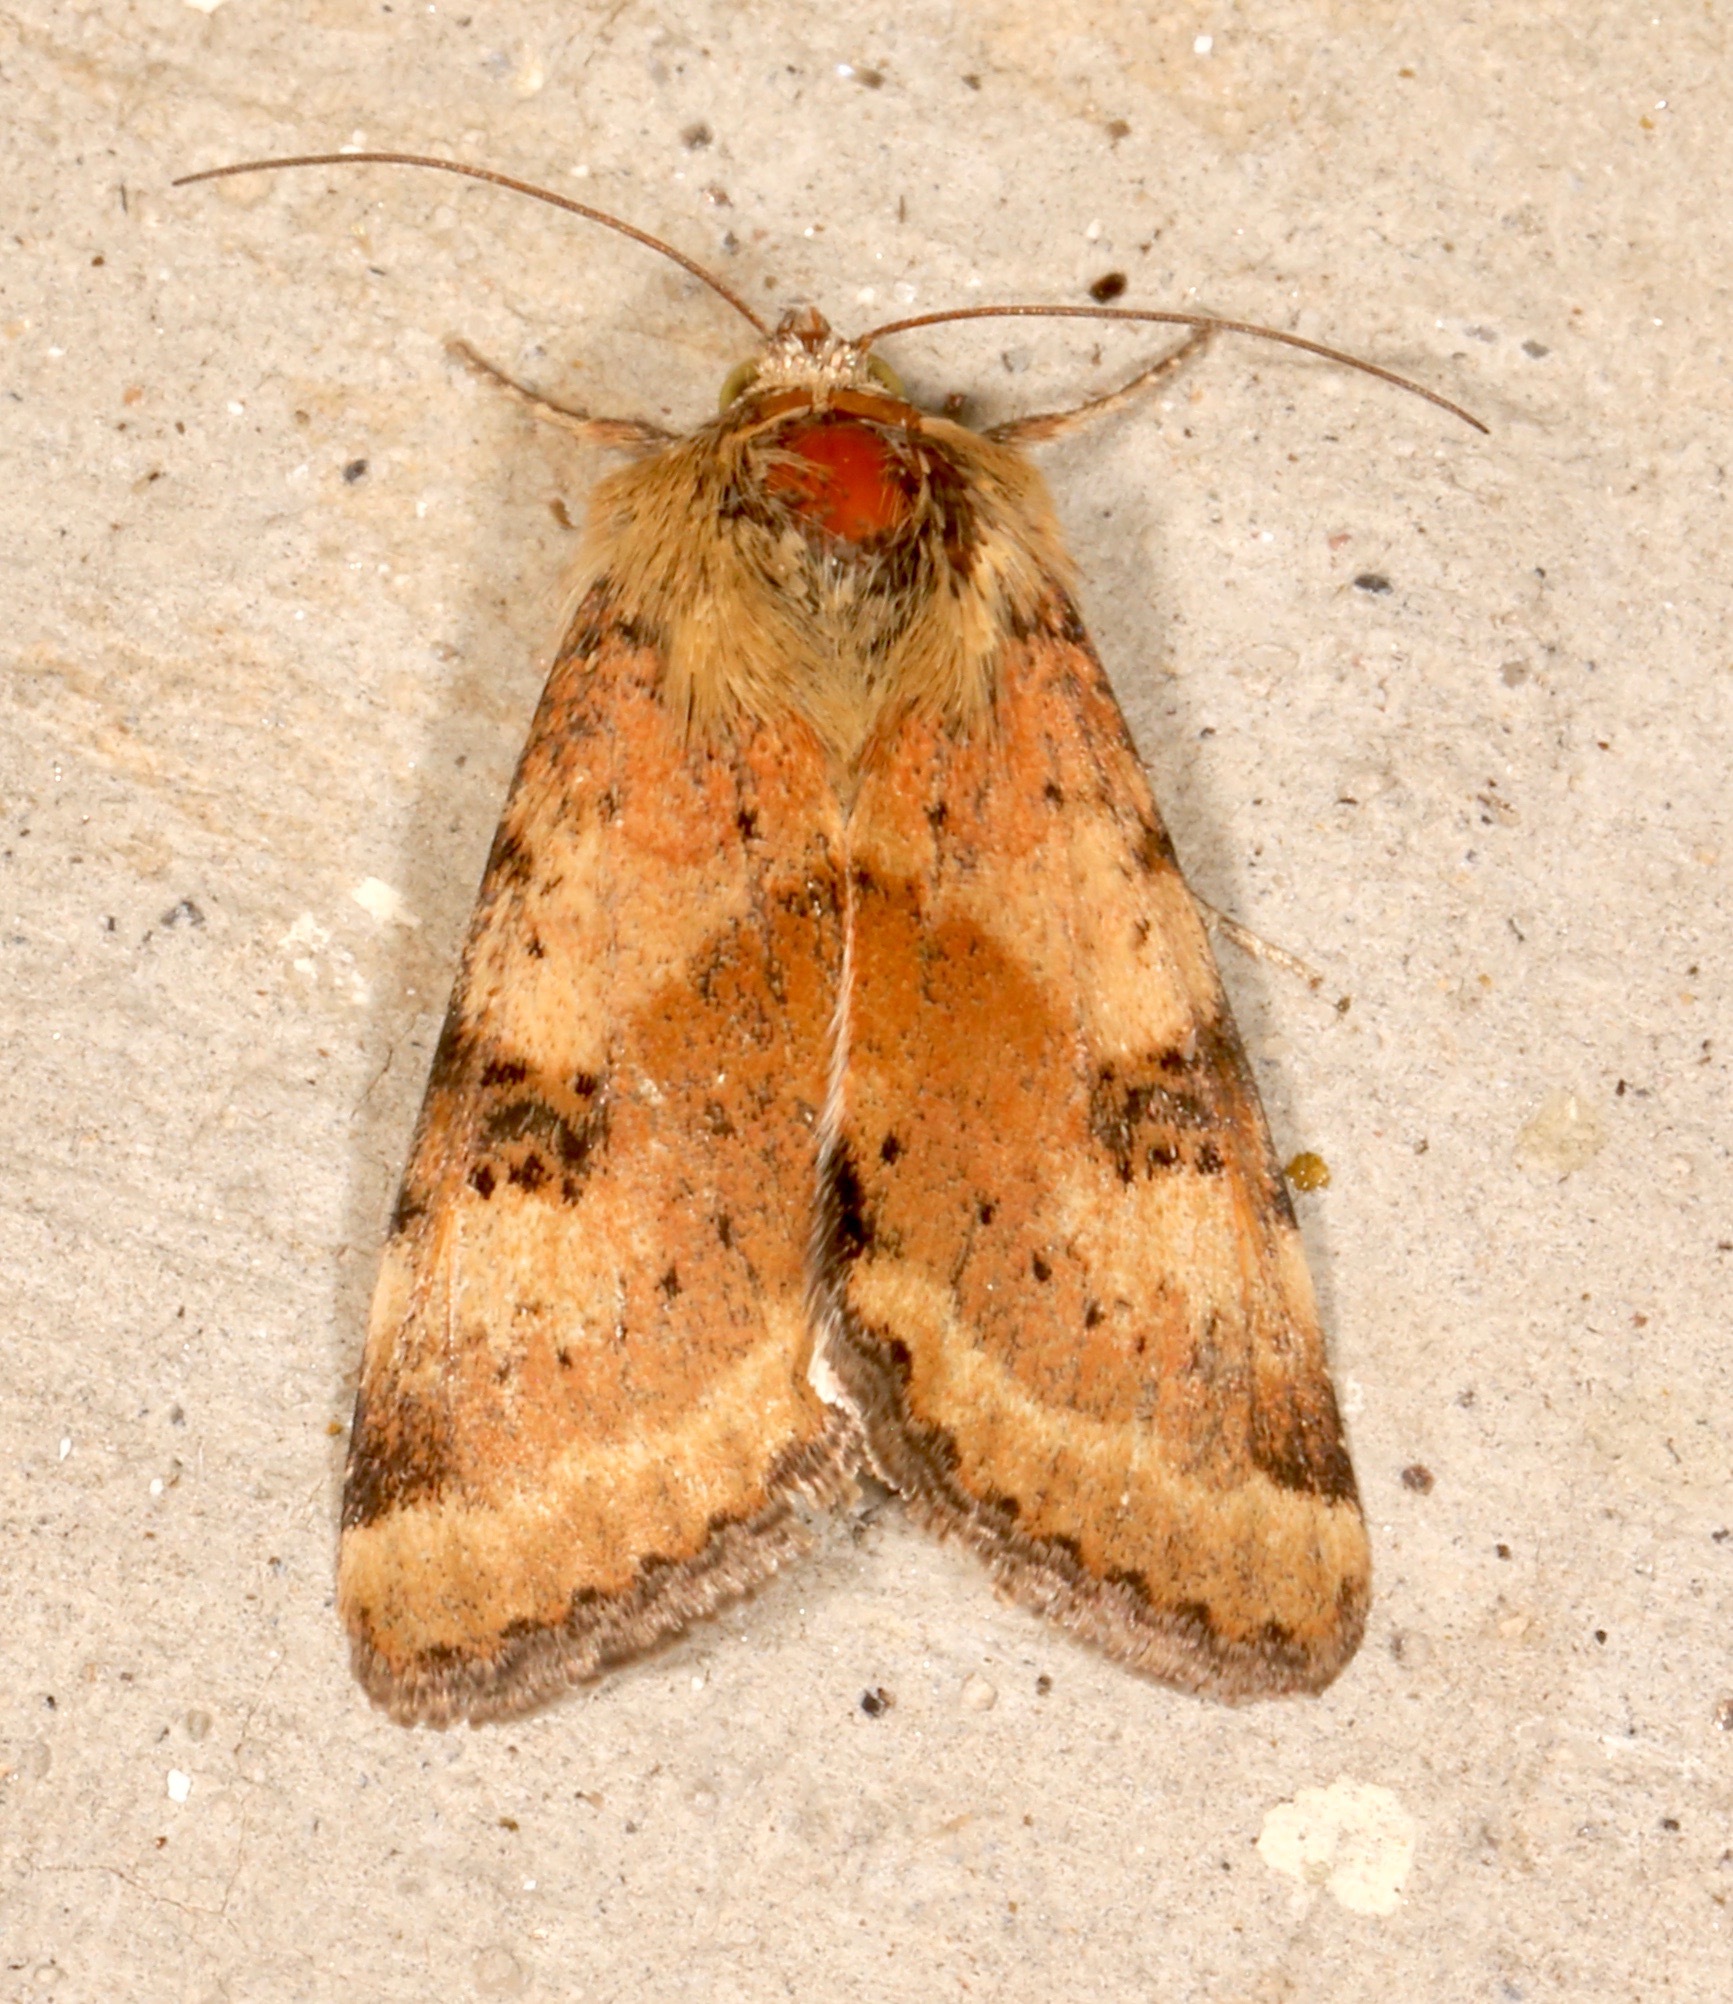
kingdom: Animalia
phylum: Arthropoda
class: Insecta
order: Lepidoptera
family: Noctuidae
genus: Heliothis
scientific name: Heliothis phloxiphaga
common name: Darker spotted straw moth
